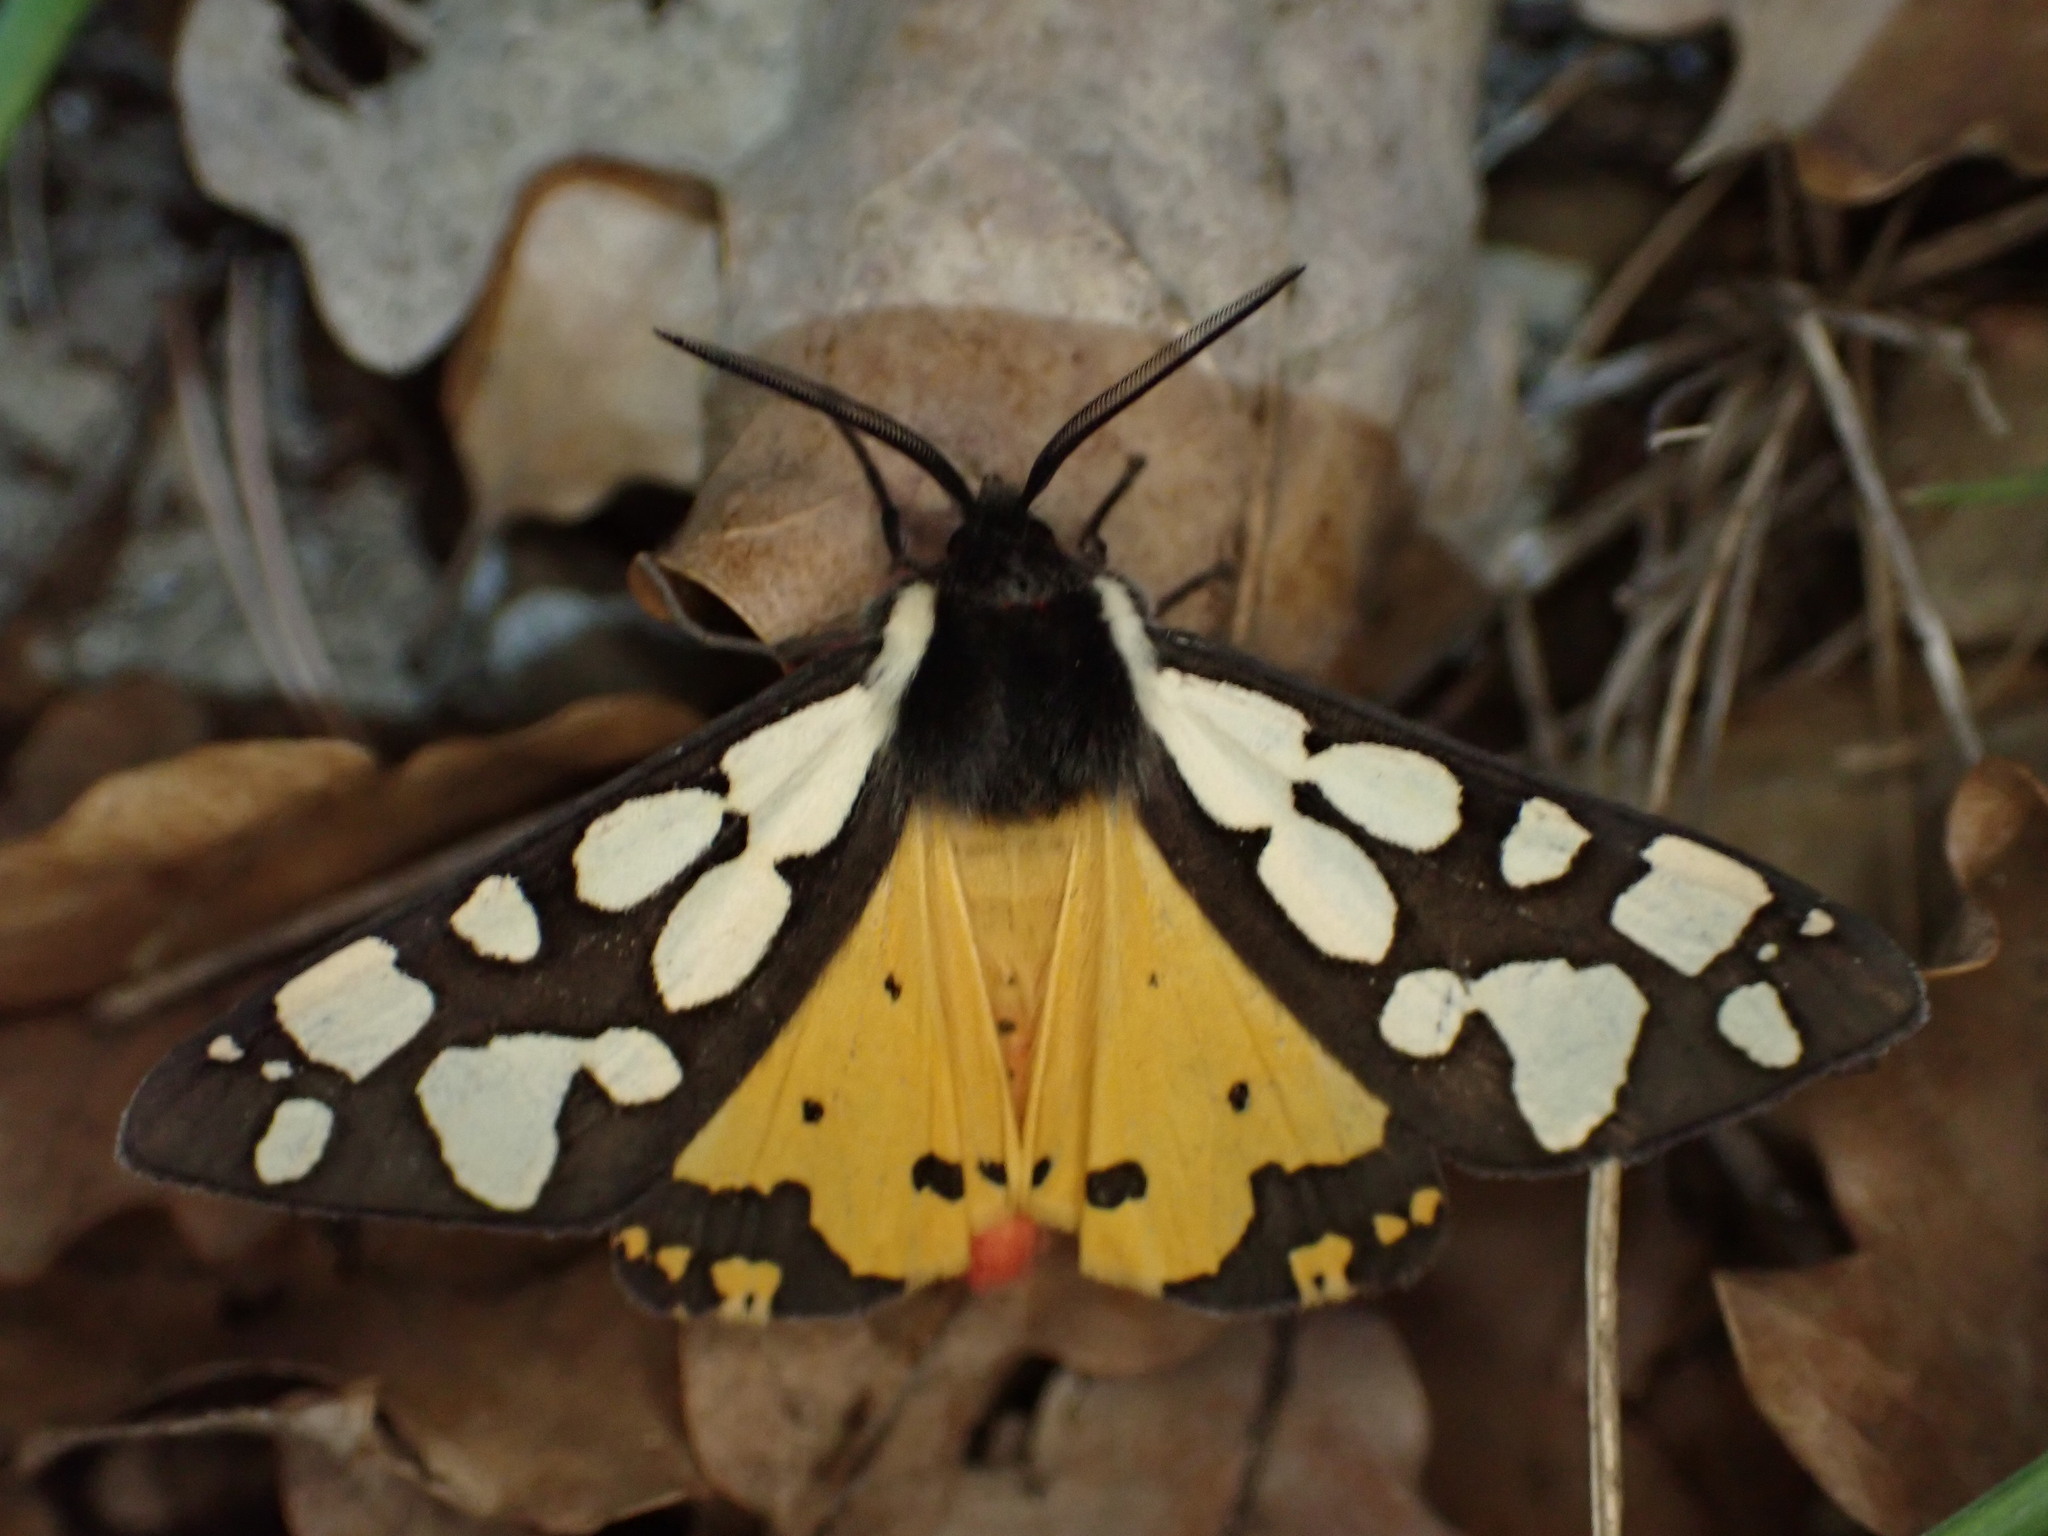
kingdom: Animalia
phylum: Arthropoda
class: Insecta
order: Lepidoptera
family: Erebidae
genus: Epicallia
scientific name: Epicallia villica
